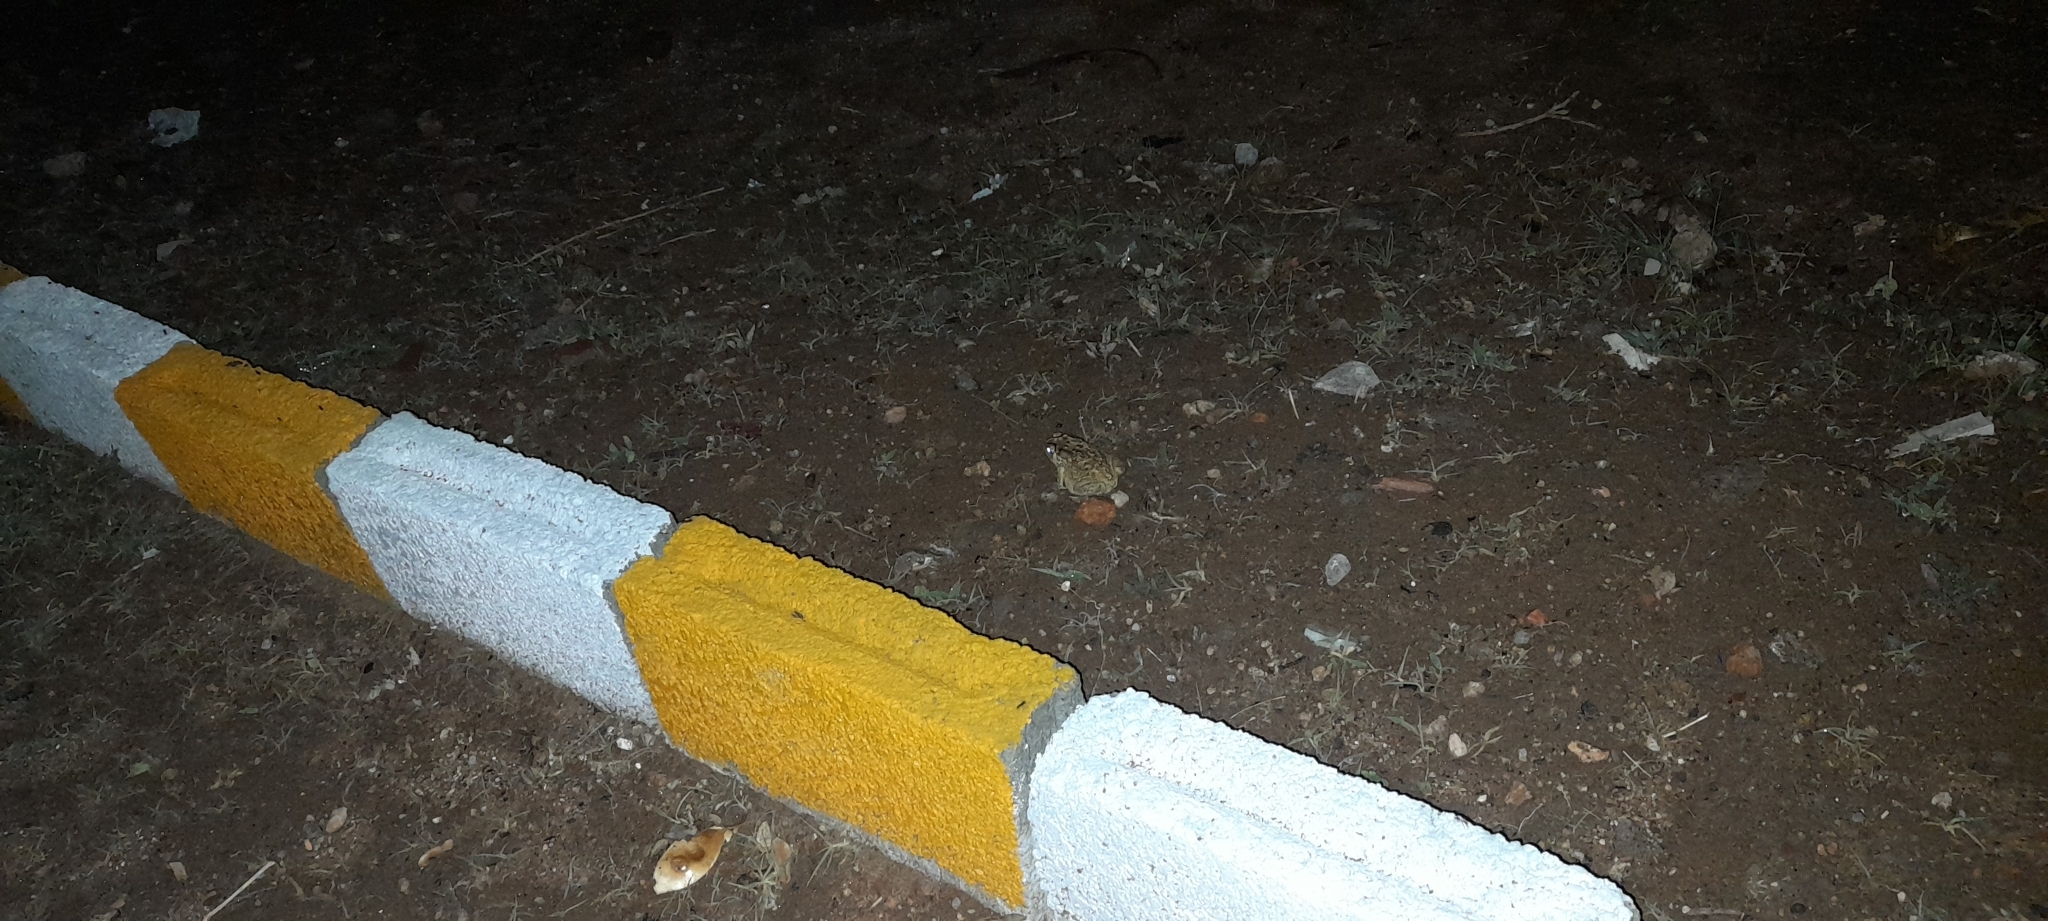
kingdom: Animalia
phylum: Chordata
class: Amphibia
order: Anura
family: Bufonidae
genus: Duttaphrynus
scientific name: Duttaphrynus melanostictus
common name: Common sunda toad
